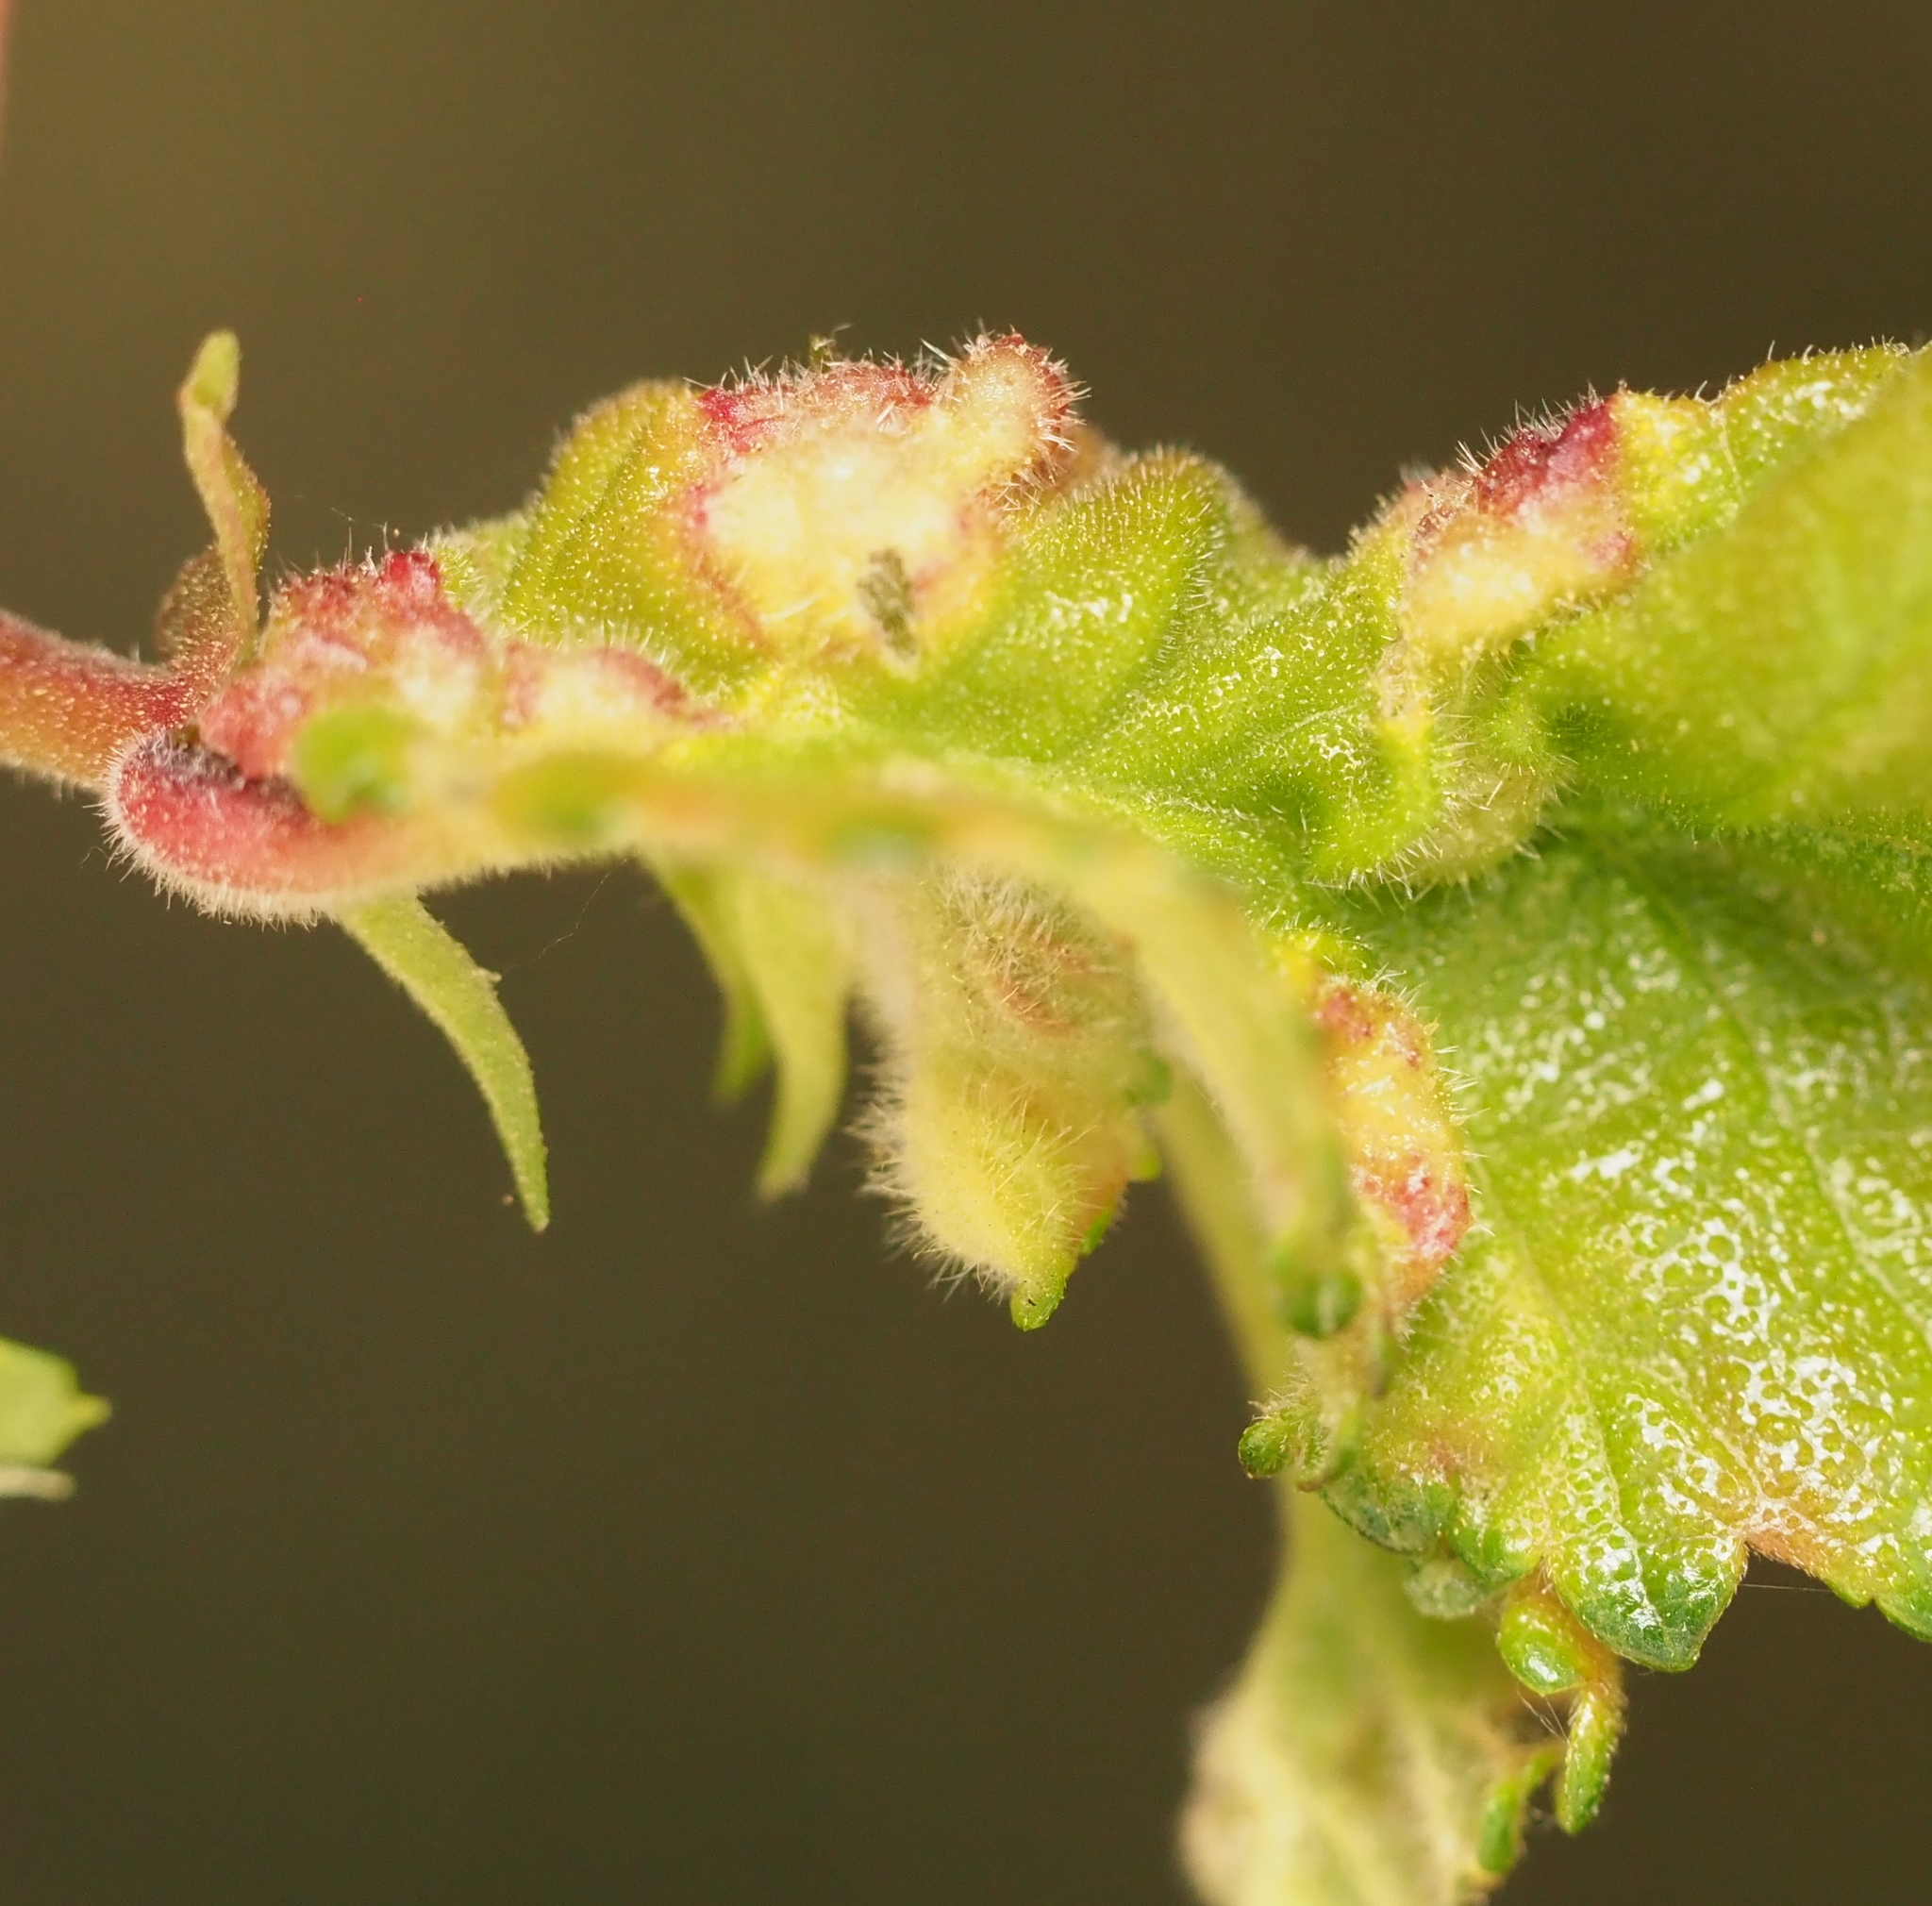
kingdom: Animalia
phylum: Arthropoda
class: Insecta
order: Diptera
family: Cecidomyiidae
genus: Janetiella
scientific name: Janetiella ulmii
